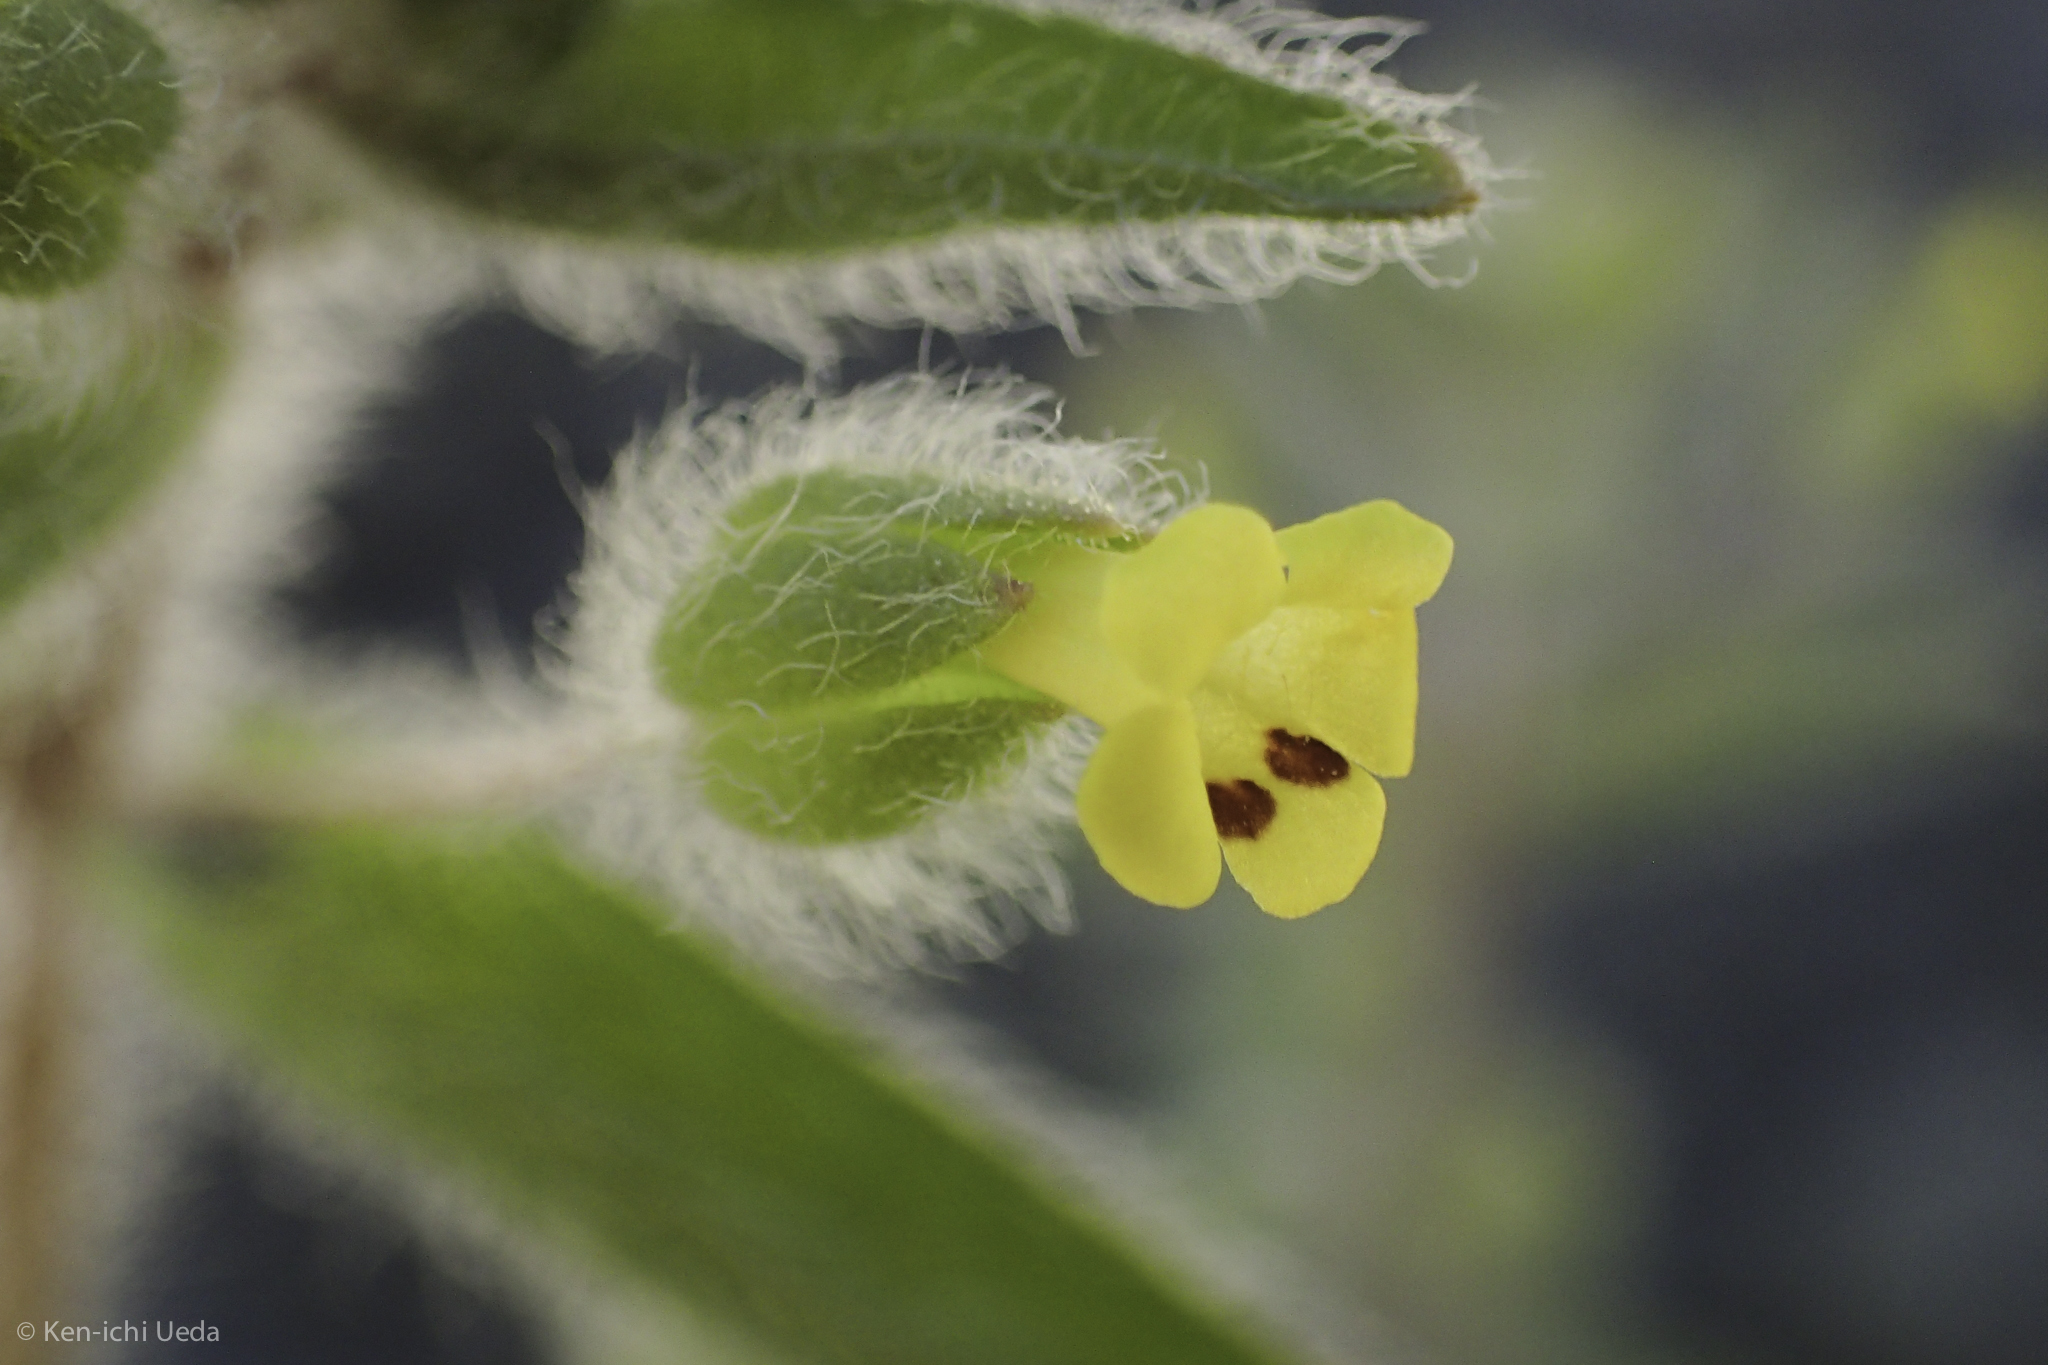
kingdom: Plantae
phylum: Tracheophyta
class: Magnoliopsida
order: Lamiales
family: Phrymaceae
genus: Mimetanthe
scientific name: Mimetanthe pilosa
